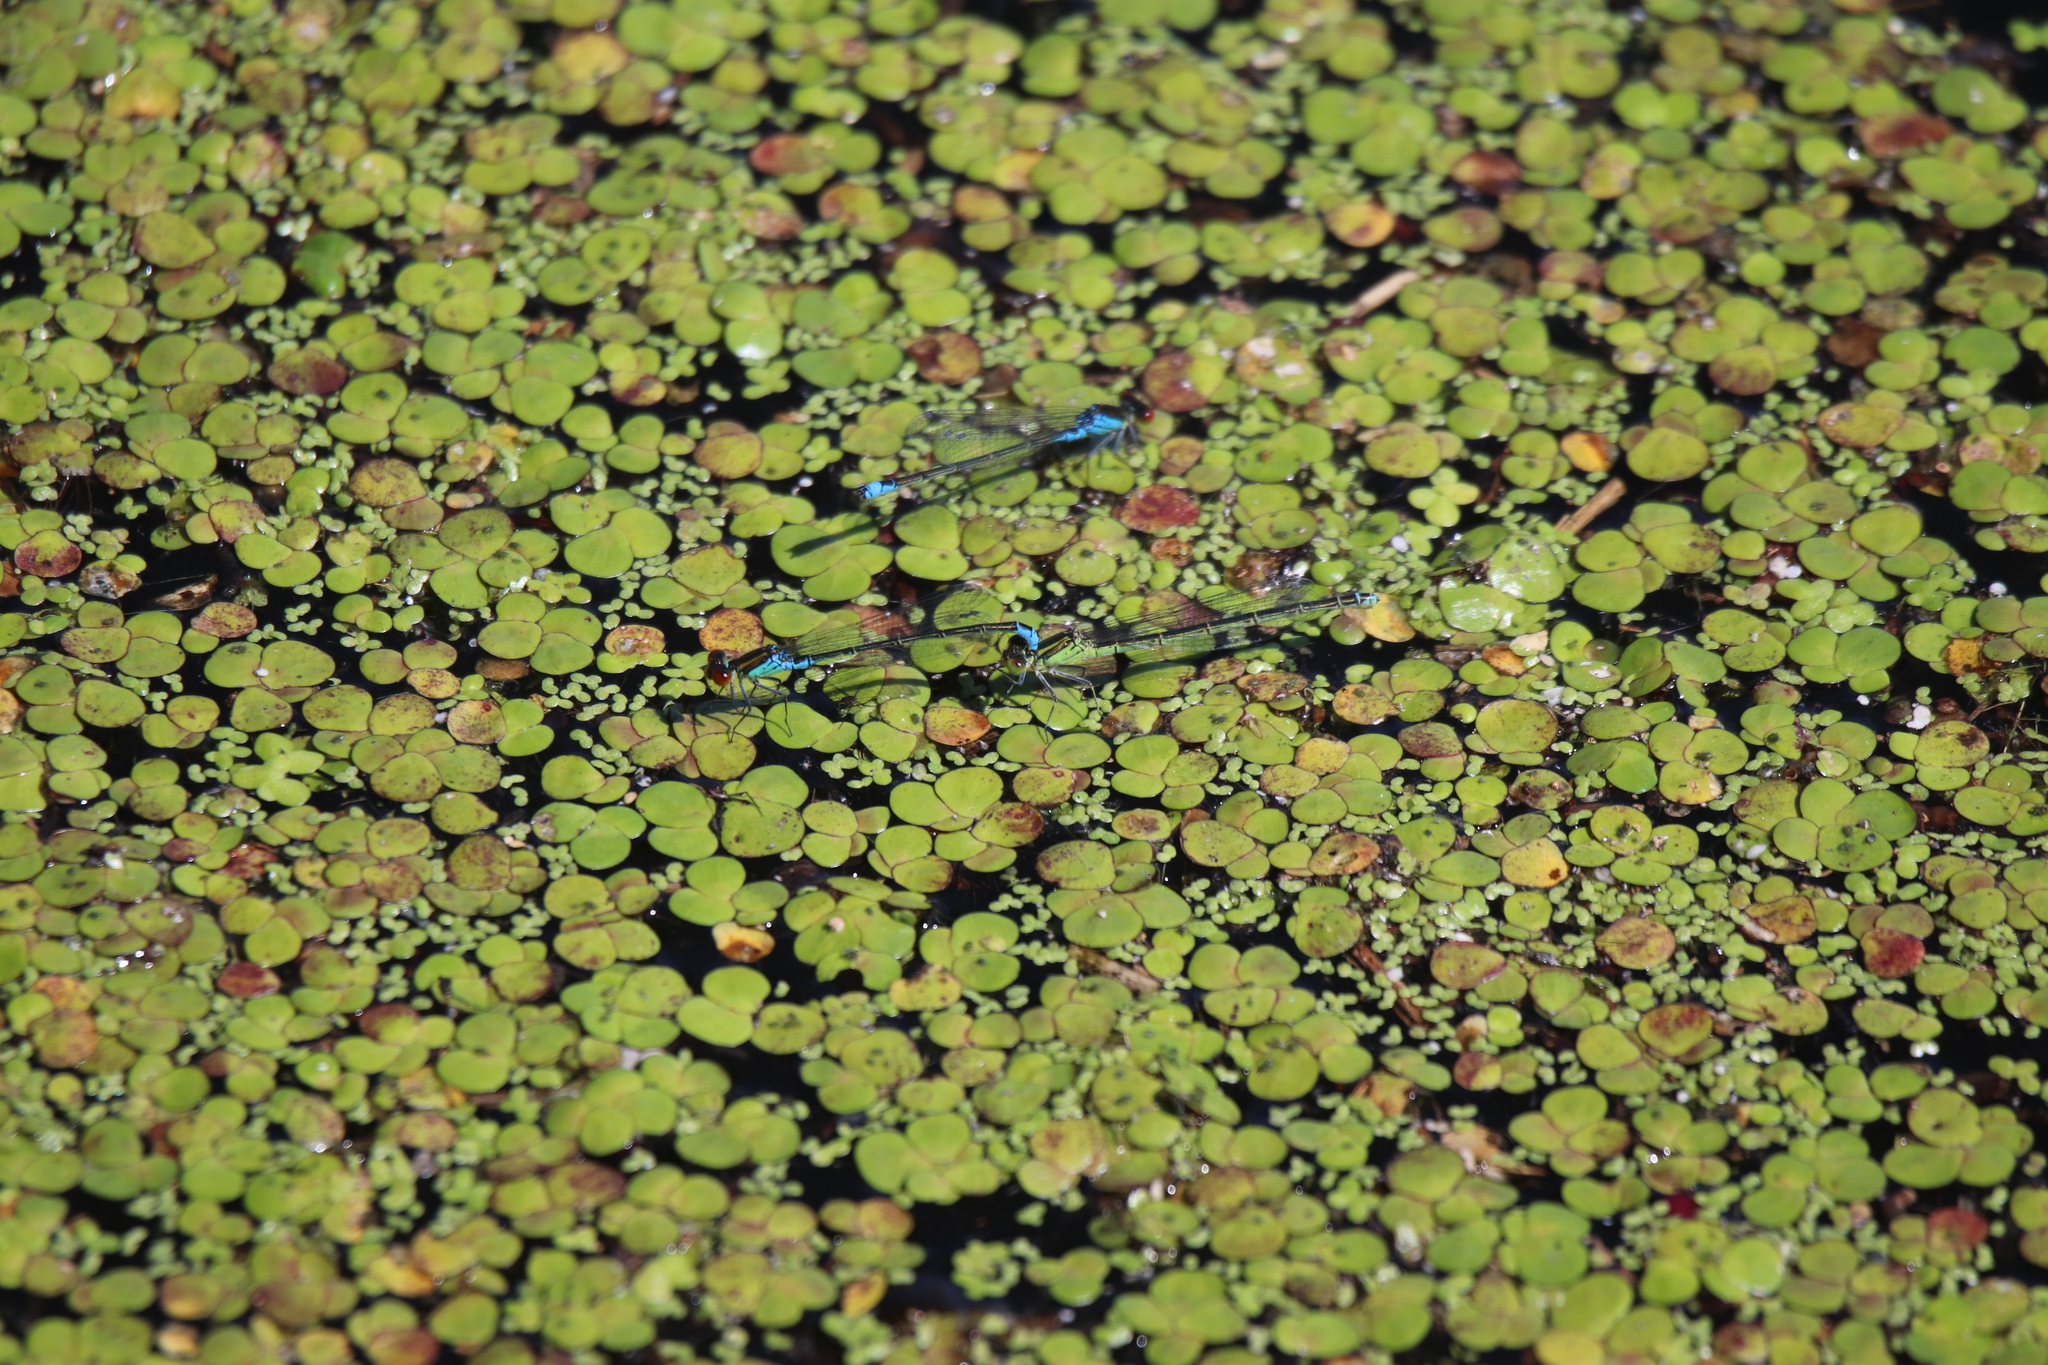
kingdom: Animalia
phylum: Arthropoda
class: Insecta
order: Odonata
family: Coenagrionidae
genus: Erythromma
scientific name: Erythromma viridulum
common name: Small red-eyed damselfly
